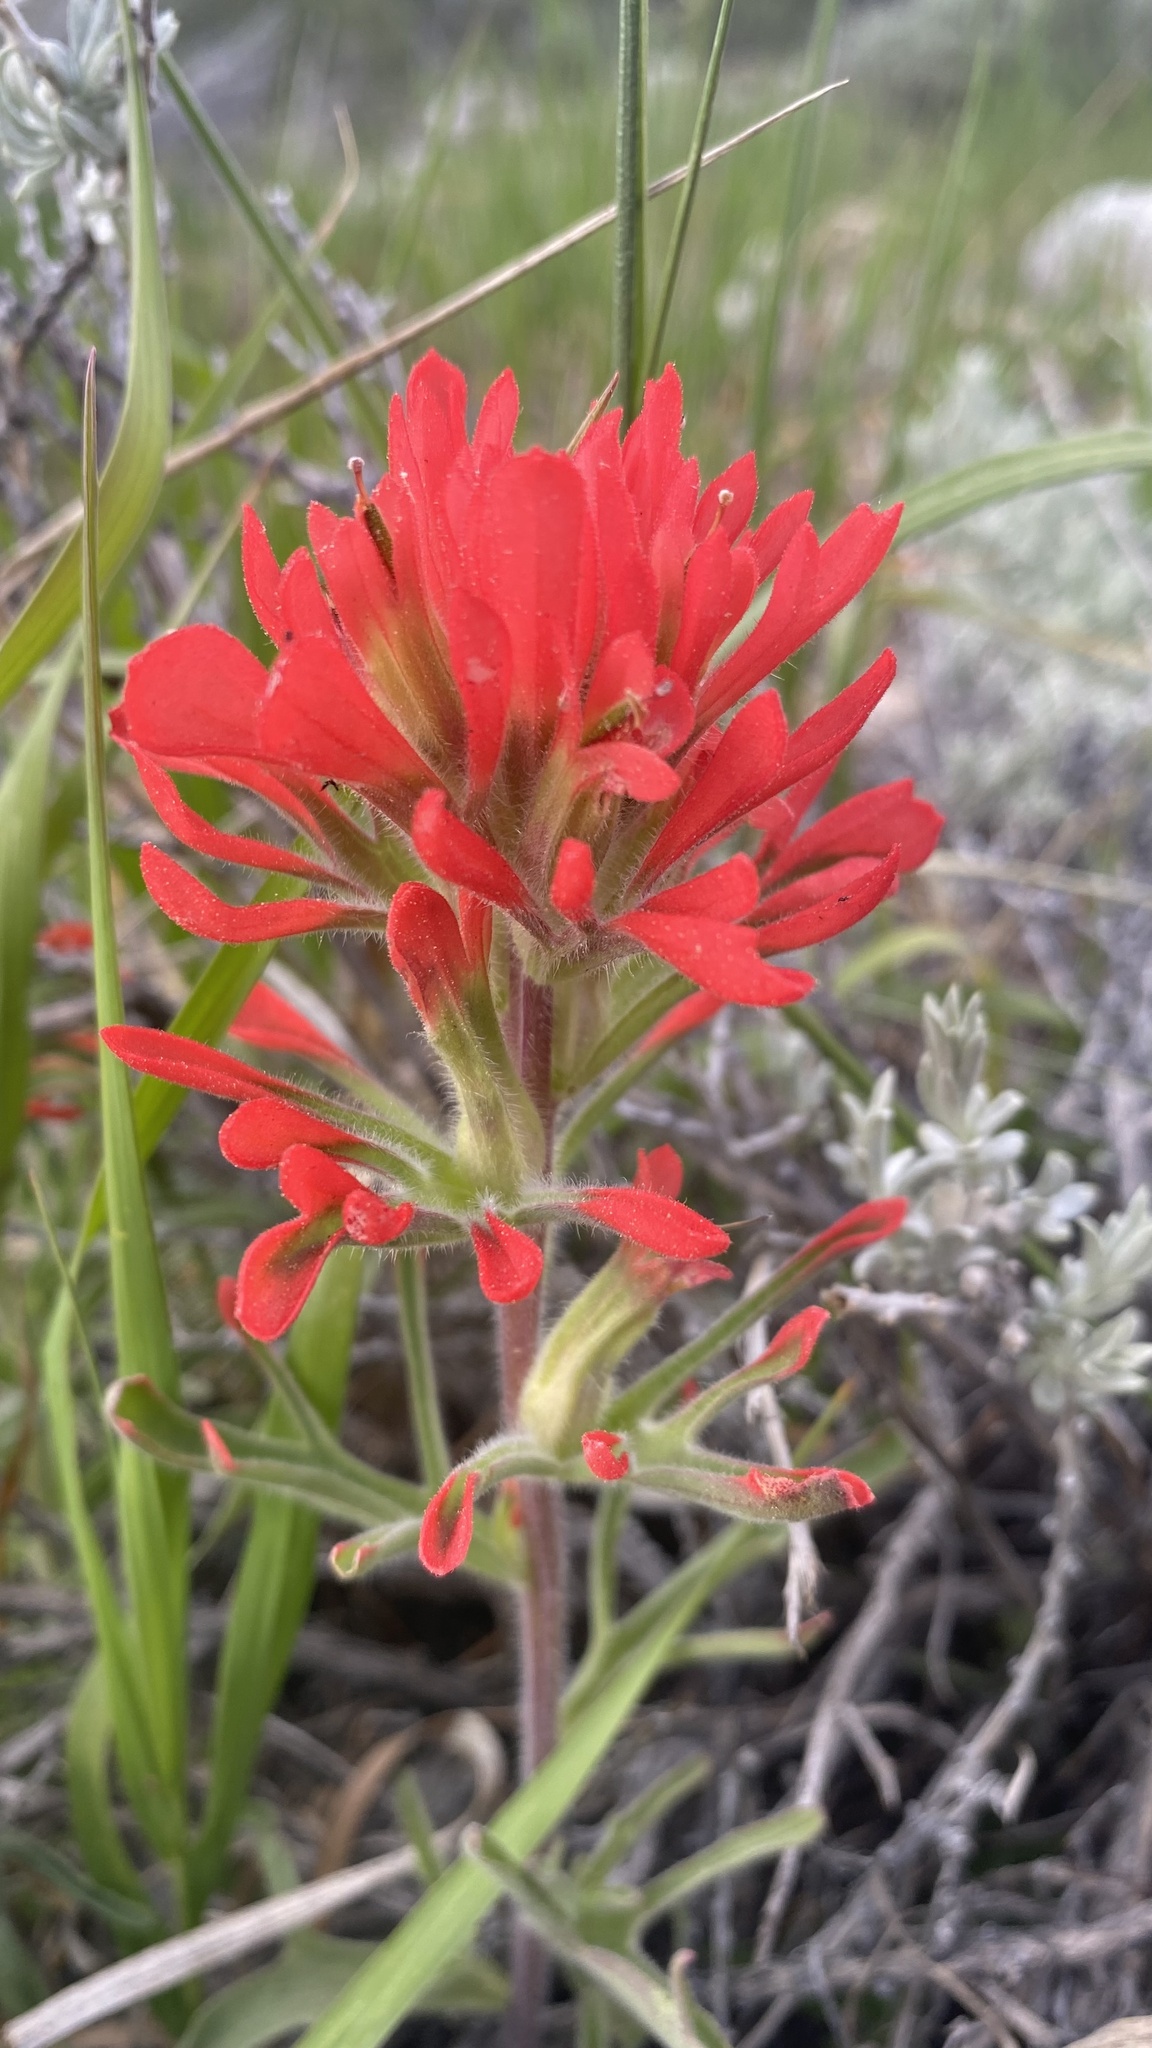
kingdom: Plantae
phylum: Tracheophyta
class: Magnoliopsida
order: Lamiales
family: Orobanchaceae
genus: Castilleja
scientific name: Castilleja chromosa
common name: Desert paintbrush
